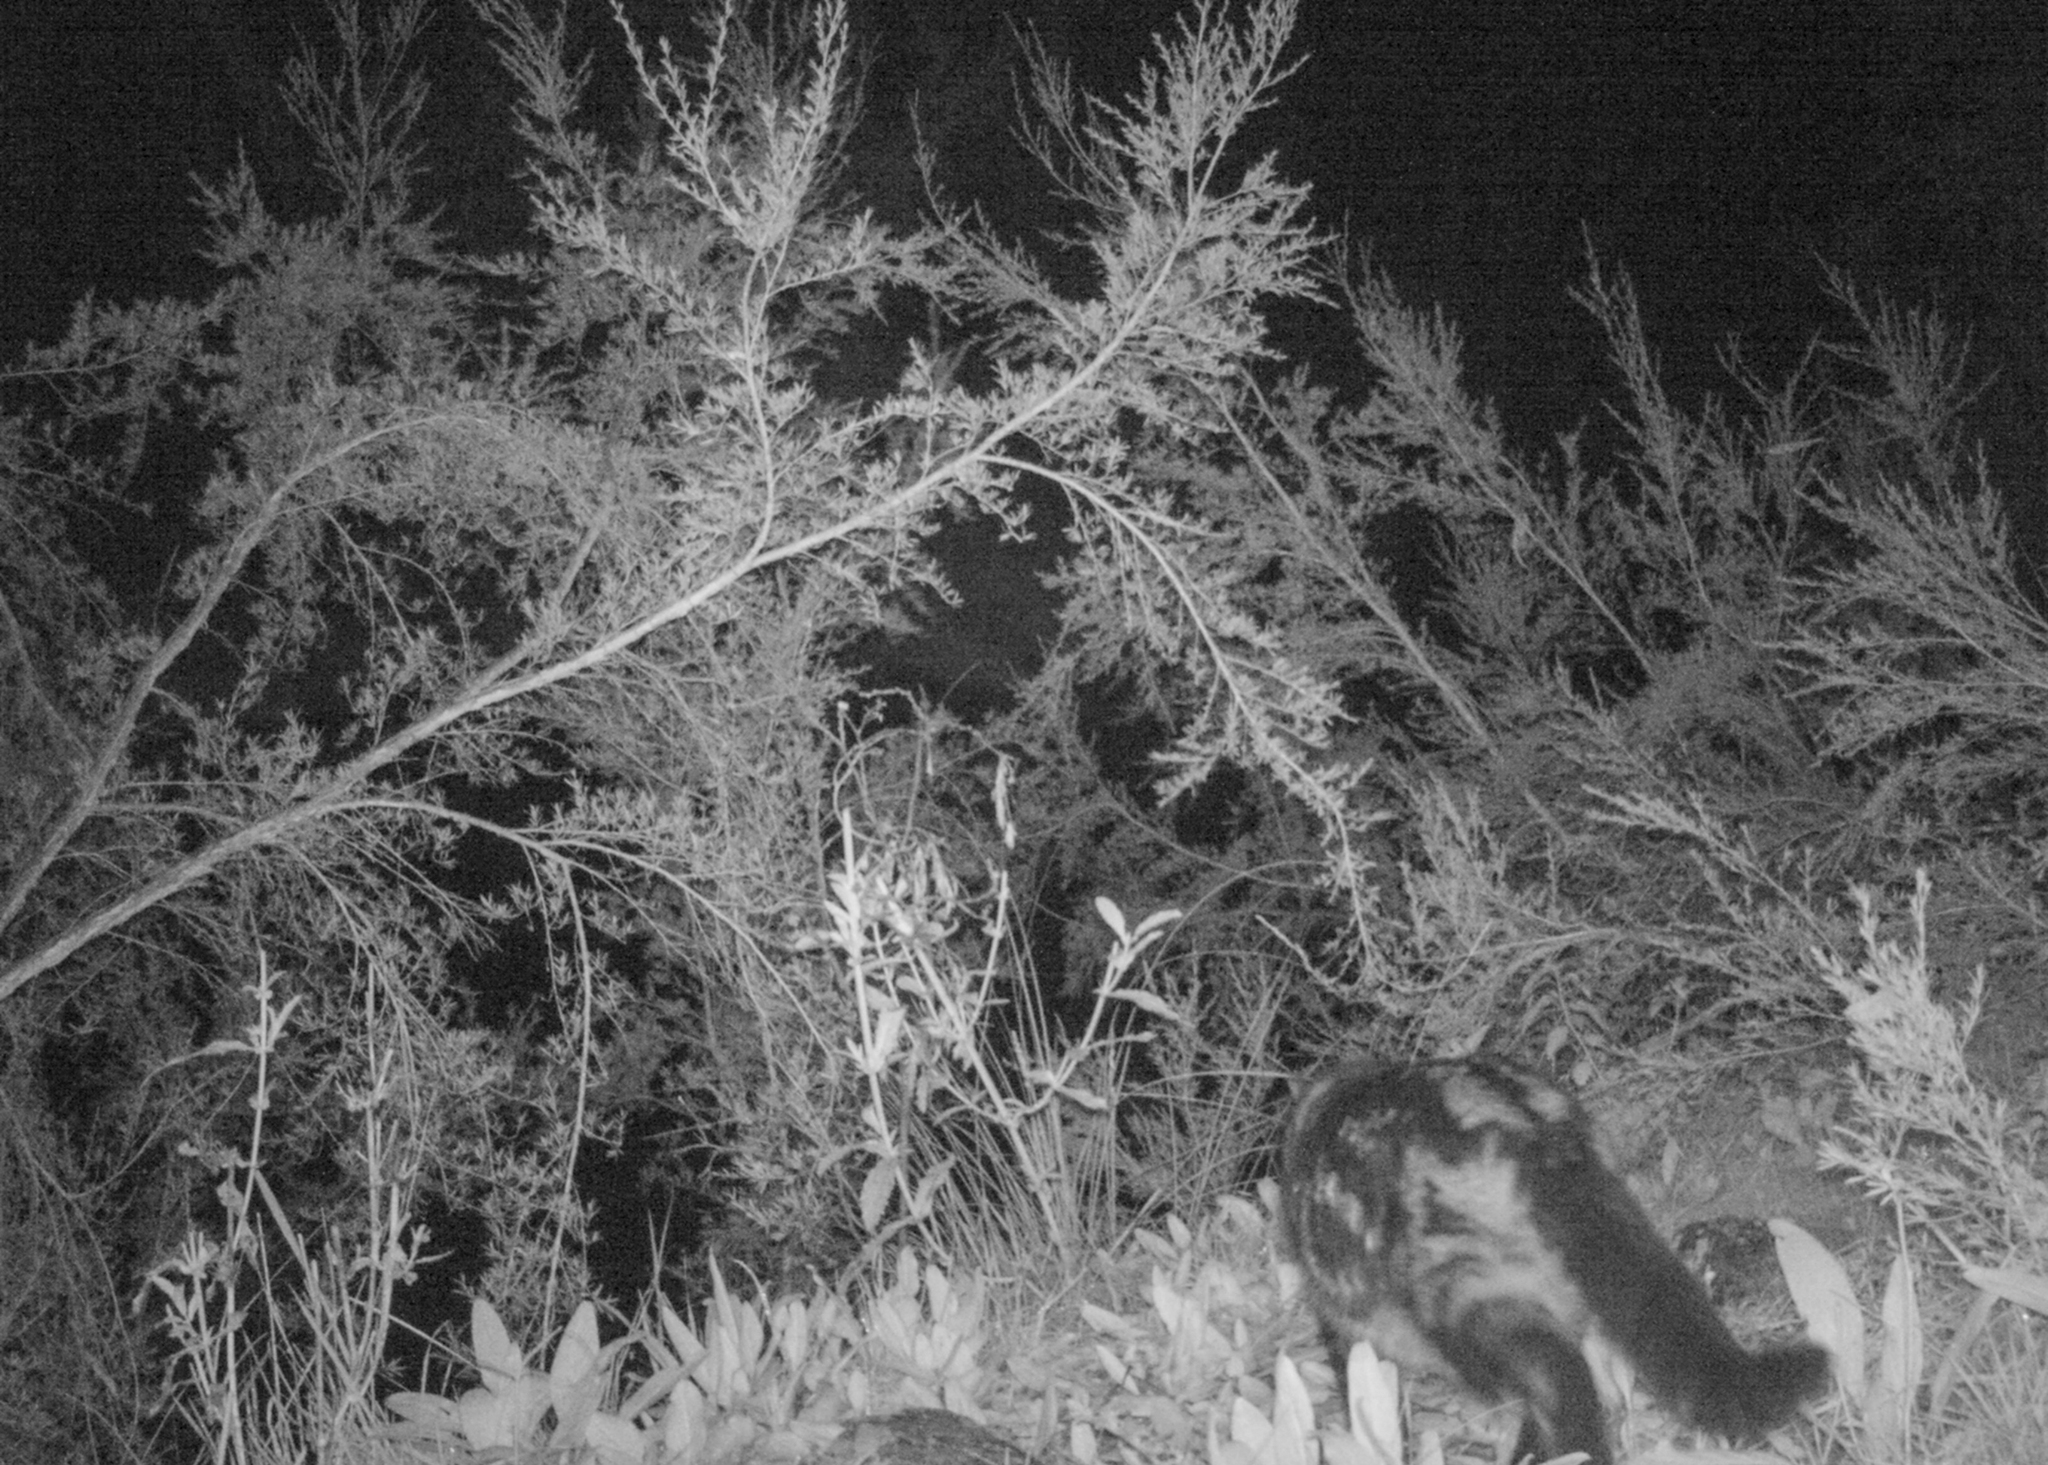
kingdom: Animalia
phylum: Chordata
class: Mammalia
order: Carnivora
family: Felidae
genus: Felis
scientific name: Felis catus
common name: Domestic cat
